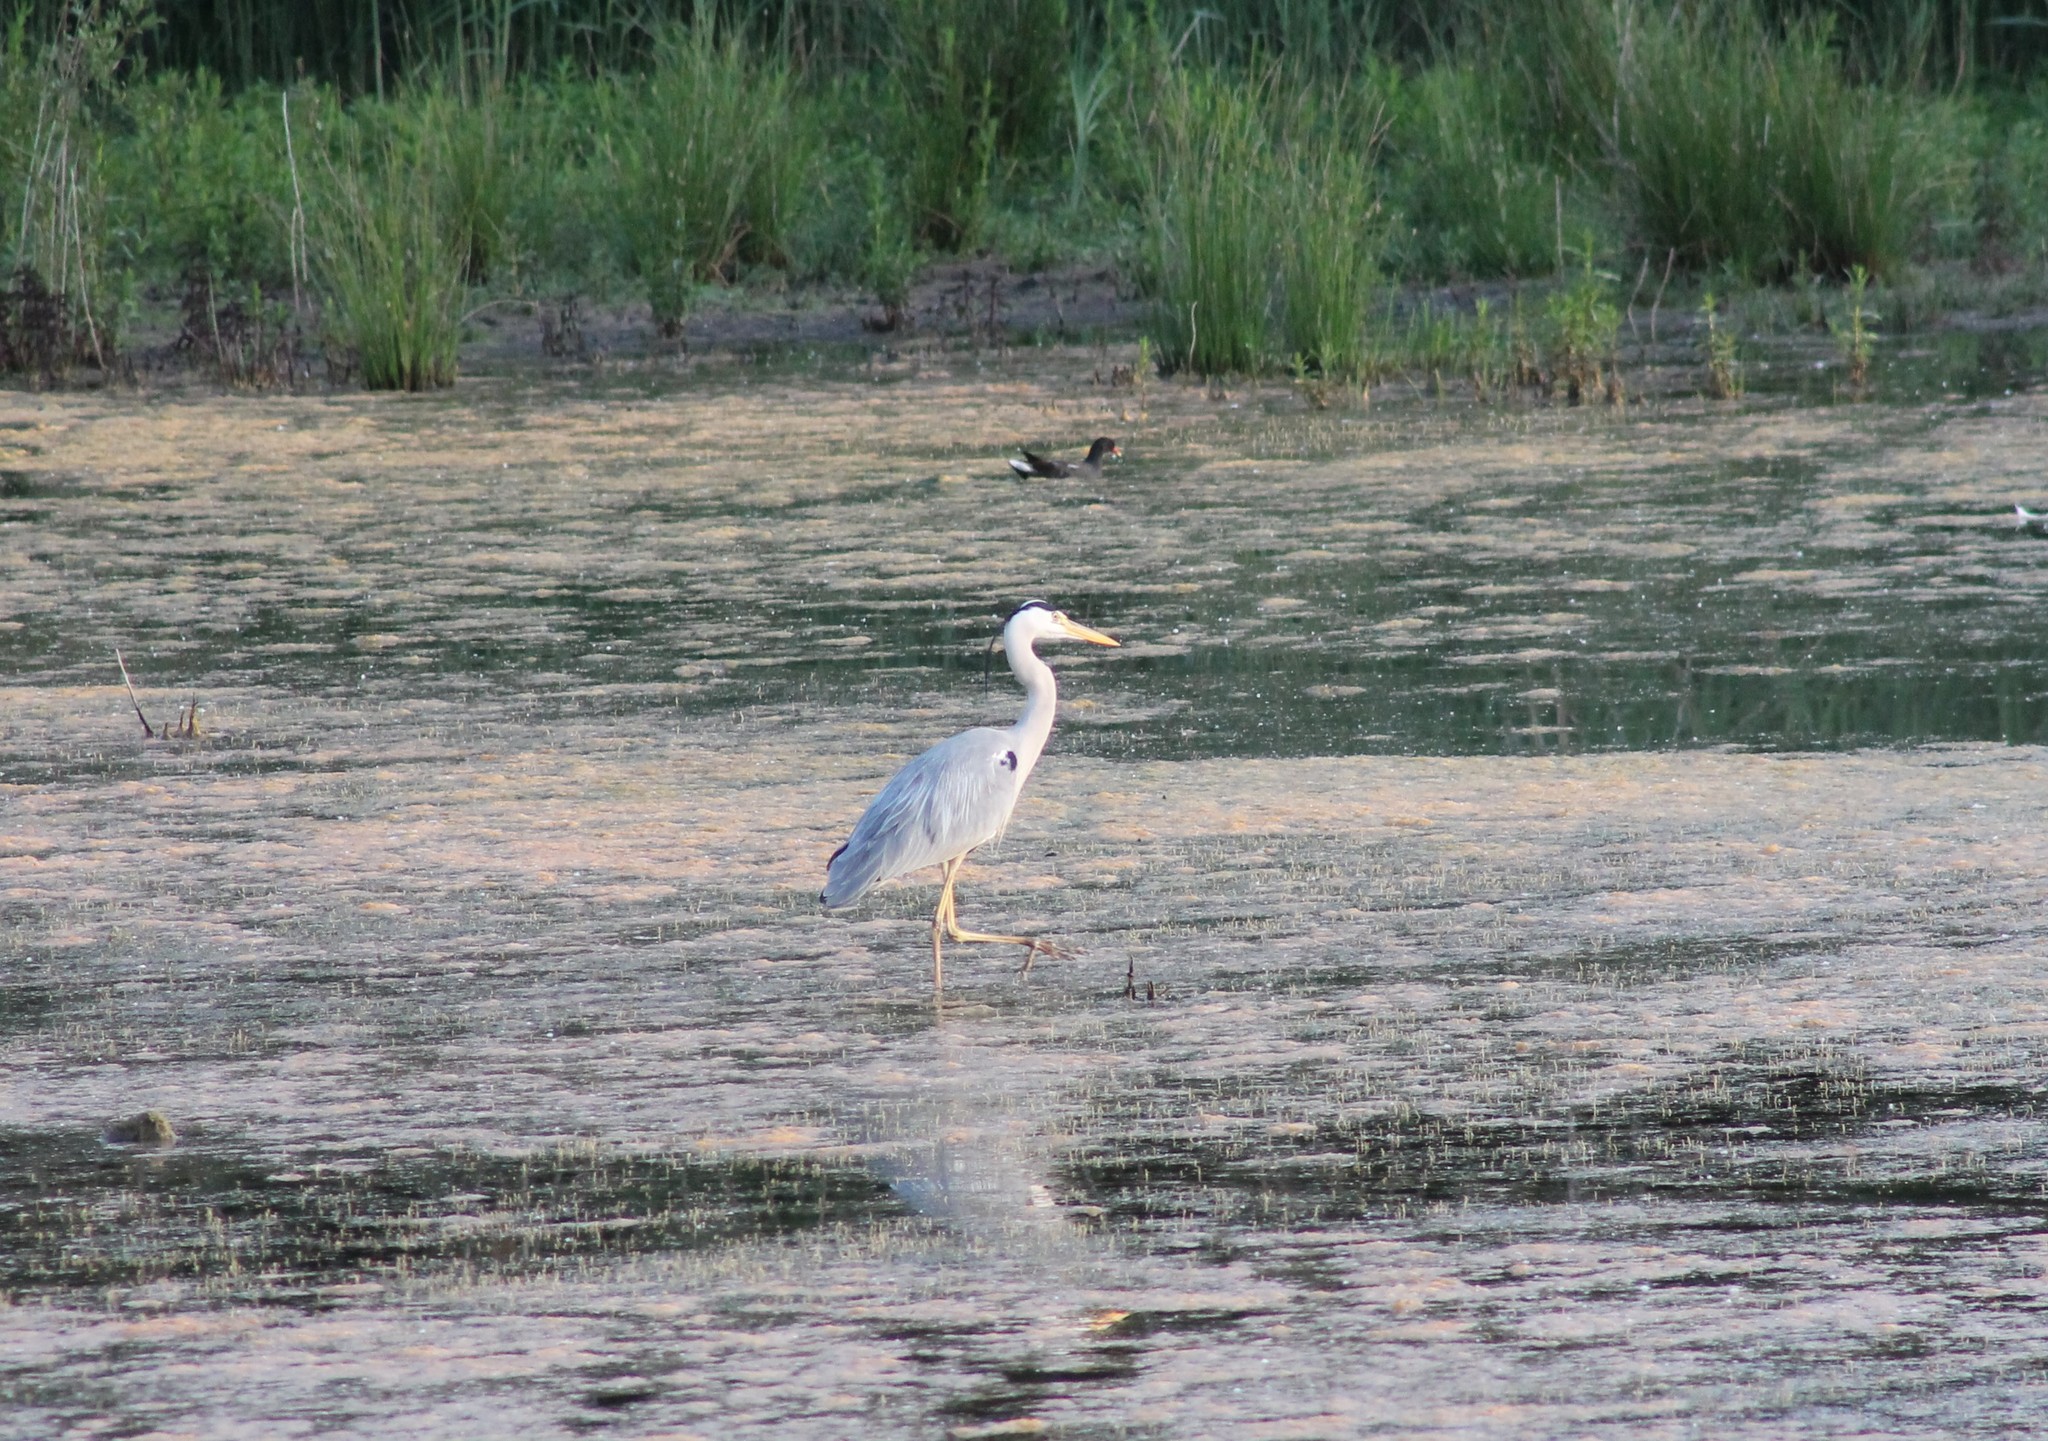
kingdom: Animalia
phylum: Chordata
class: Aves
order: Pelecaniformes
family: Ardeidae
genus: Ardea
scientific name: Ardea cinerea
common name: Grey heron
